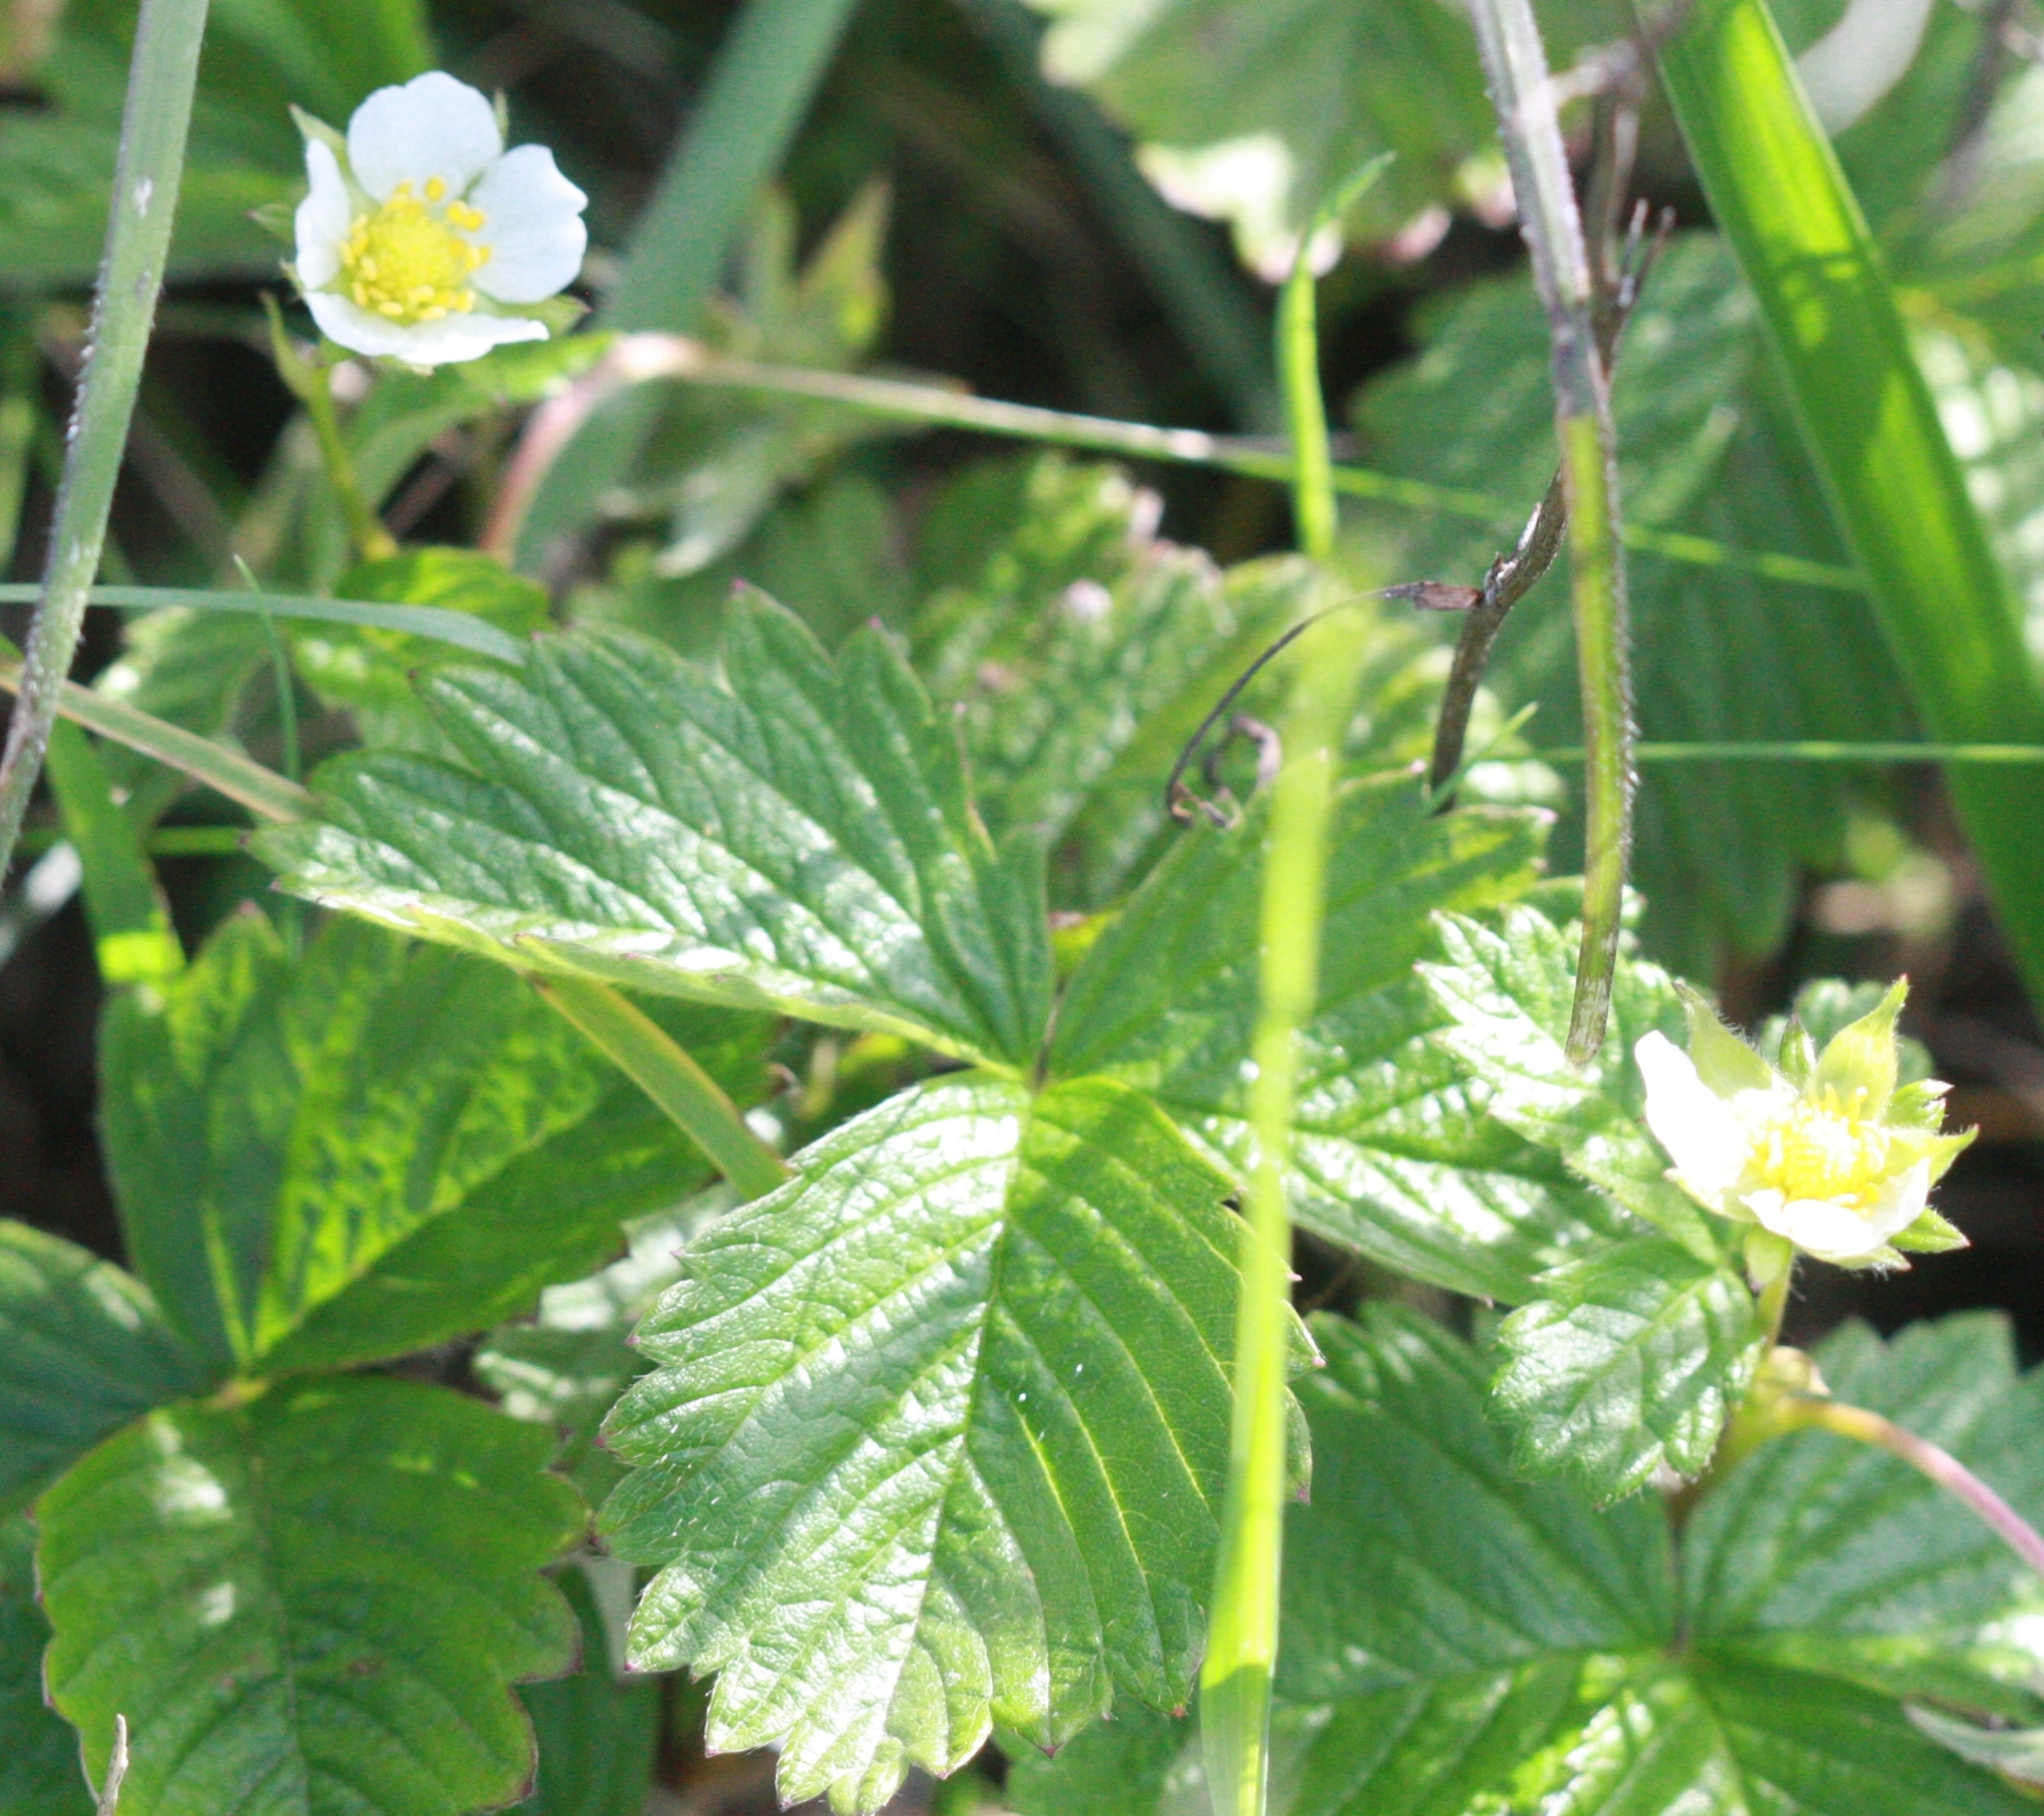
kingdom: Plantae
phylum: Tracheophyta
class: Magnoliopsida
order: Rosales
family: Rosaceae
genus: Fragaria
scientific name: Fragaria vesca
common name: Wild strawberry
